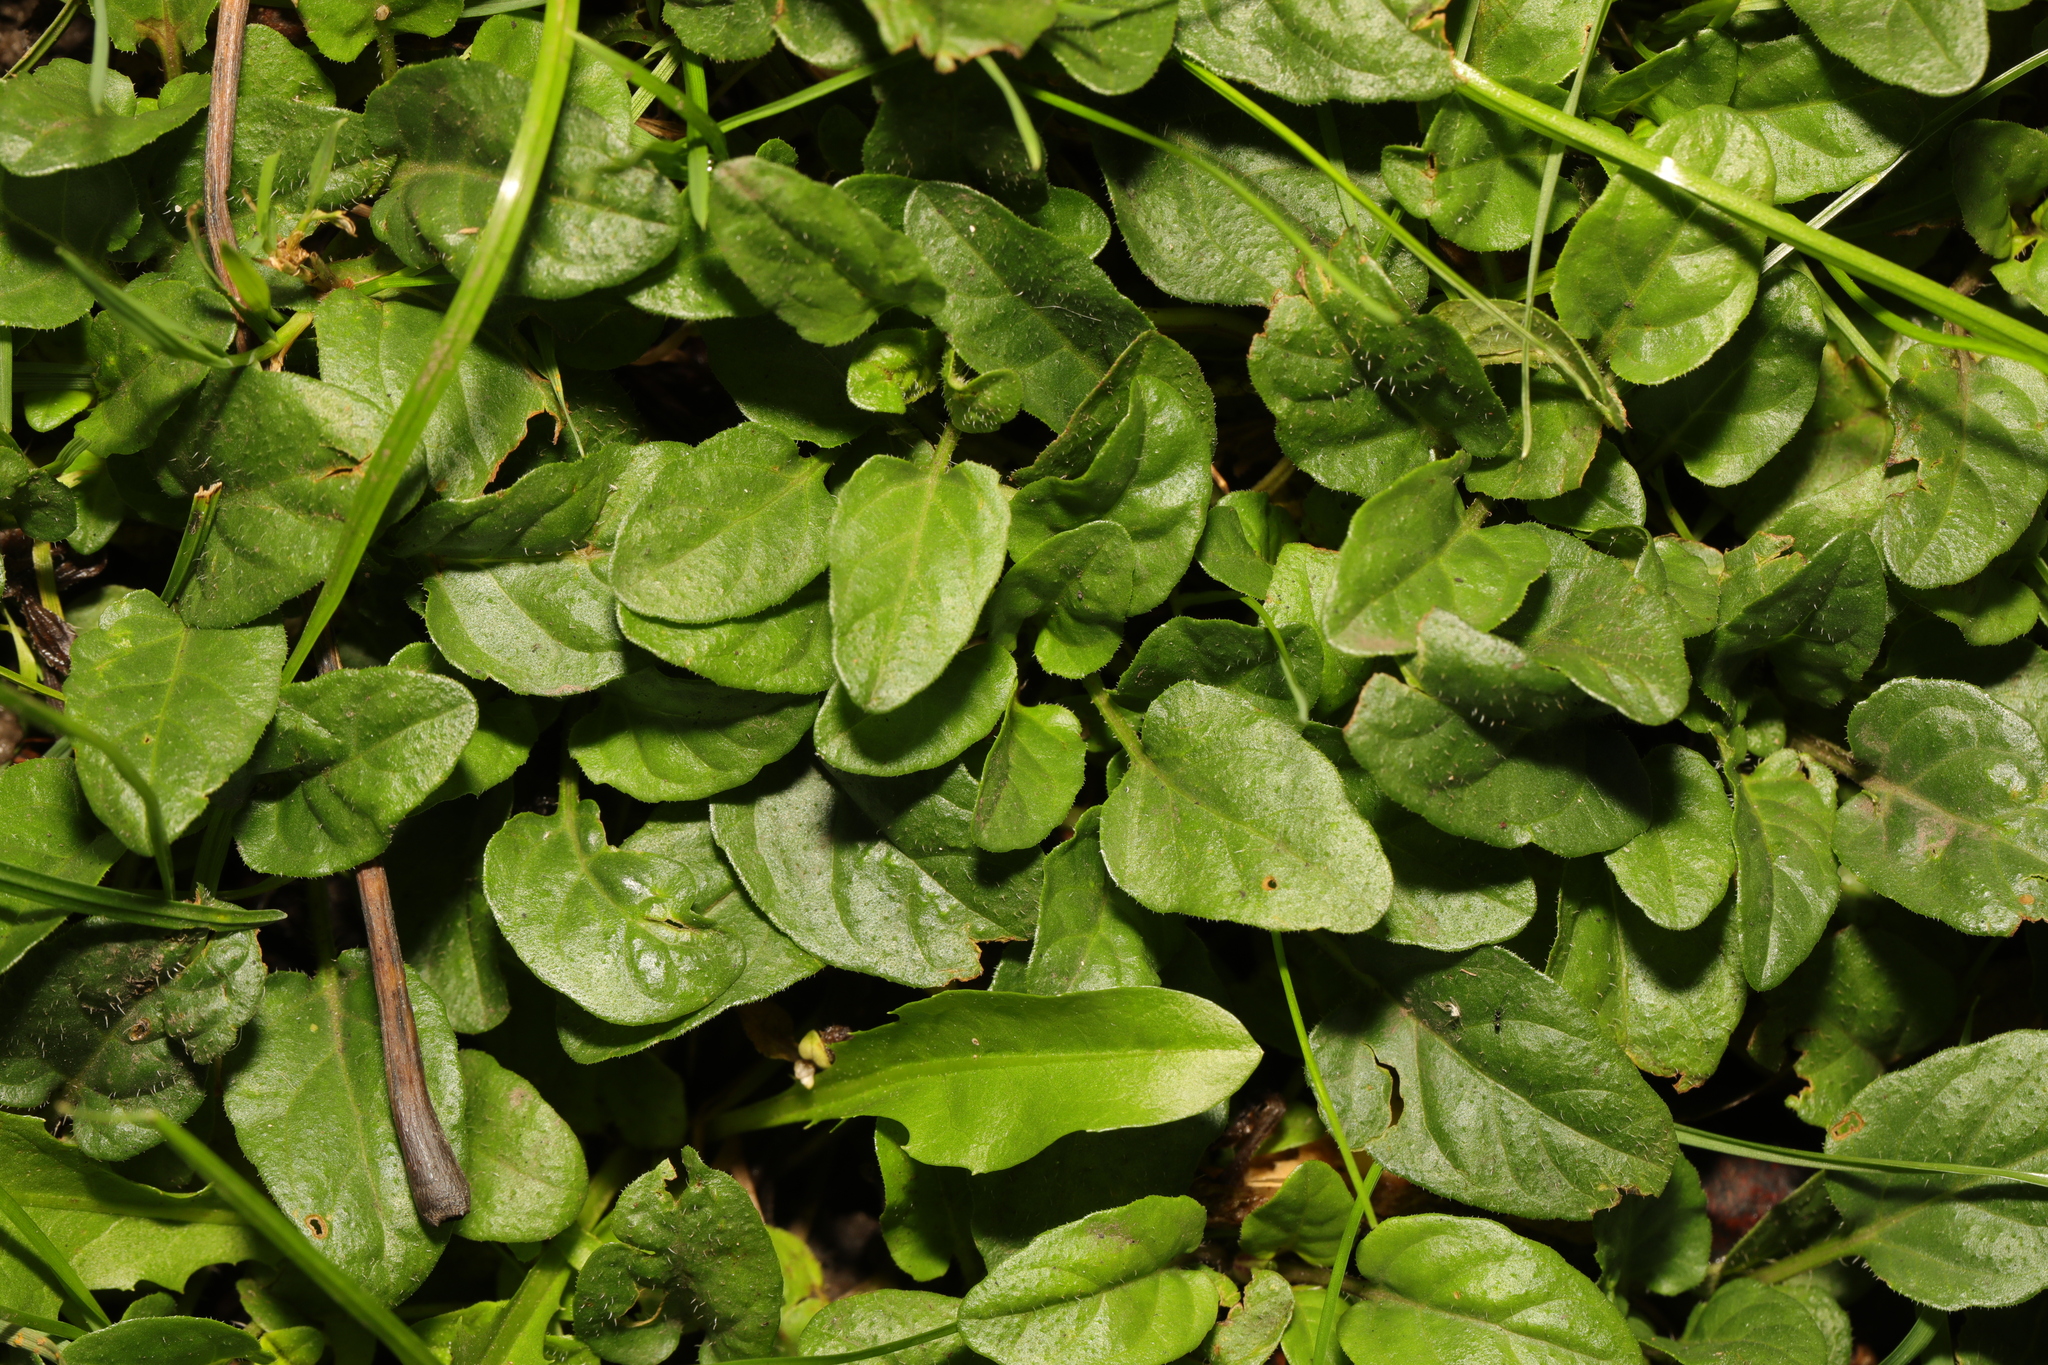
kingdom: Plantae
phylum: Tracheophyta
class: Magnoliopsida
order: Lamiales
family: Lamiaceae
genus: Prunella
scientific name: Prunella vulgaris
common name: Heal-all
